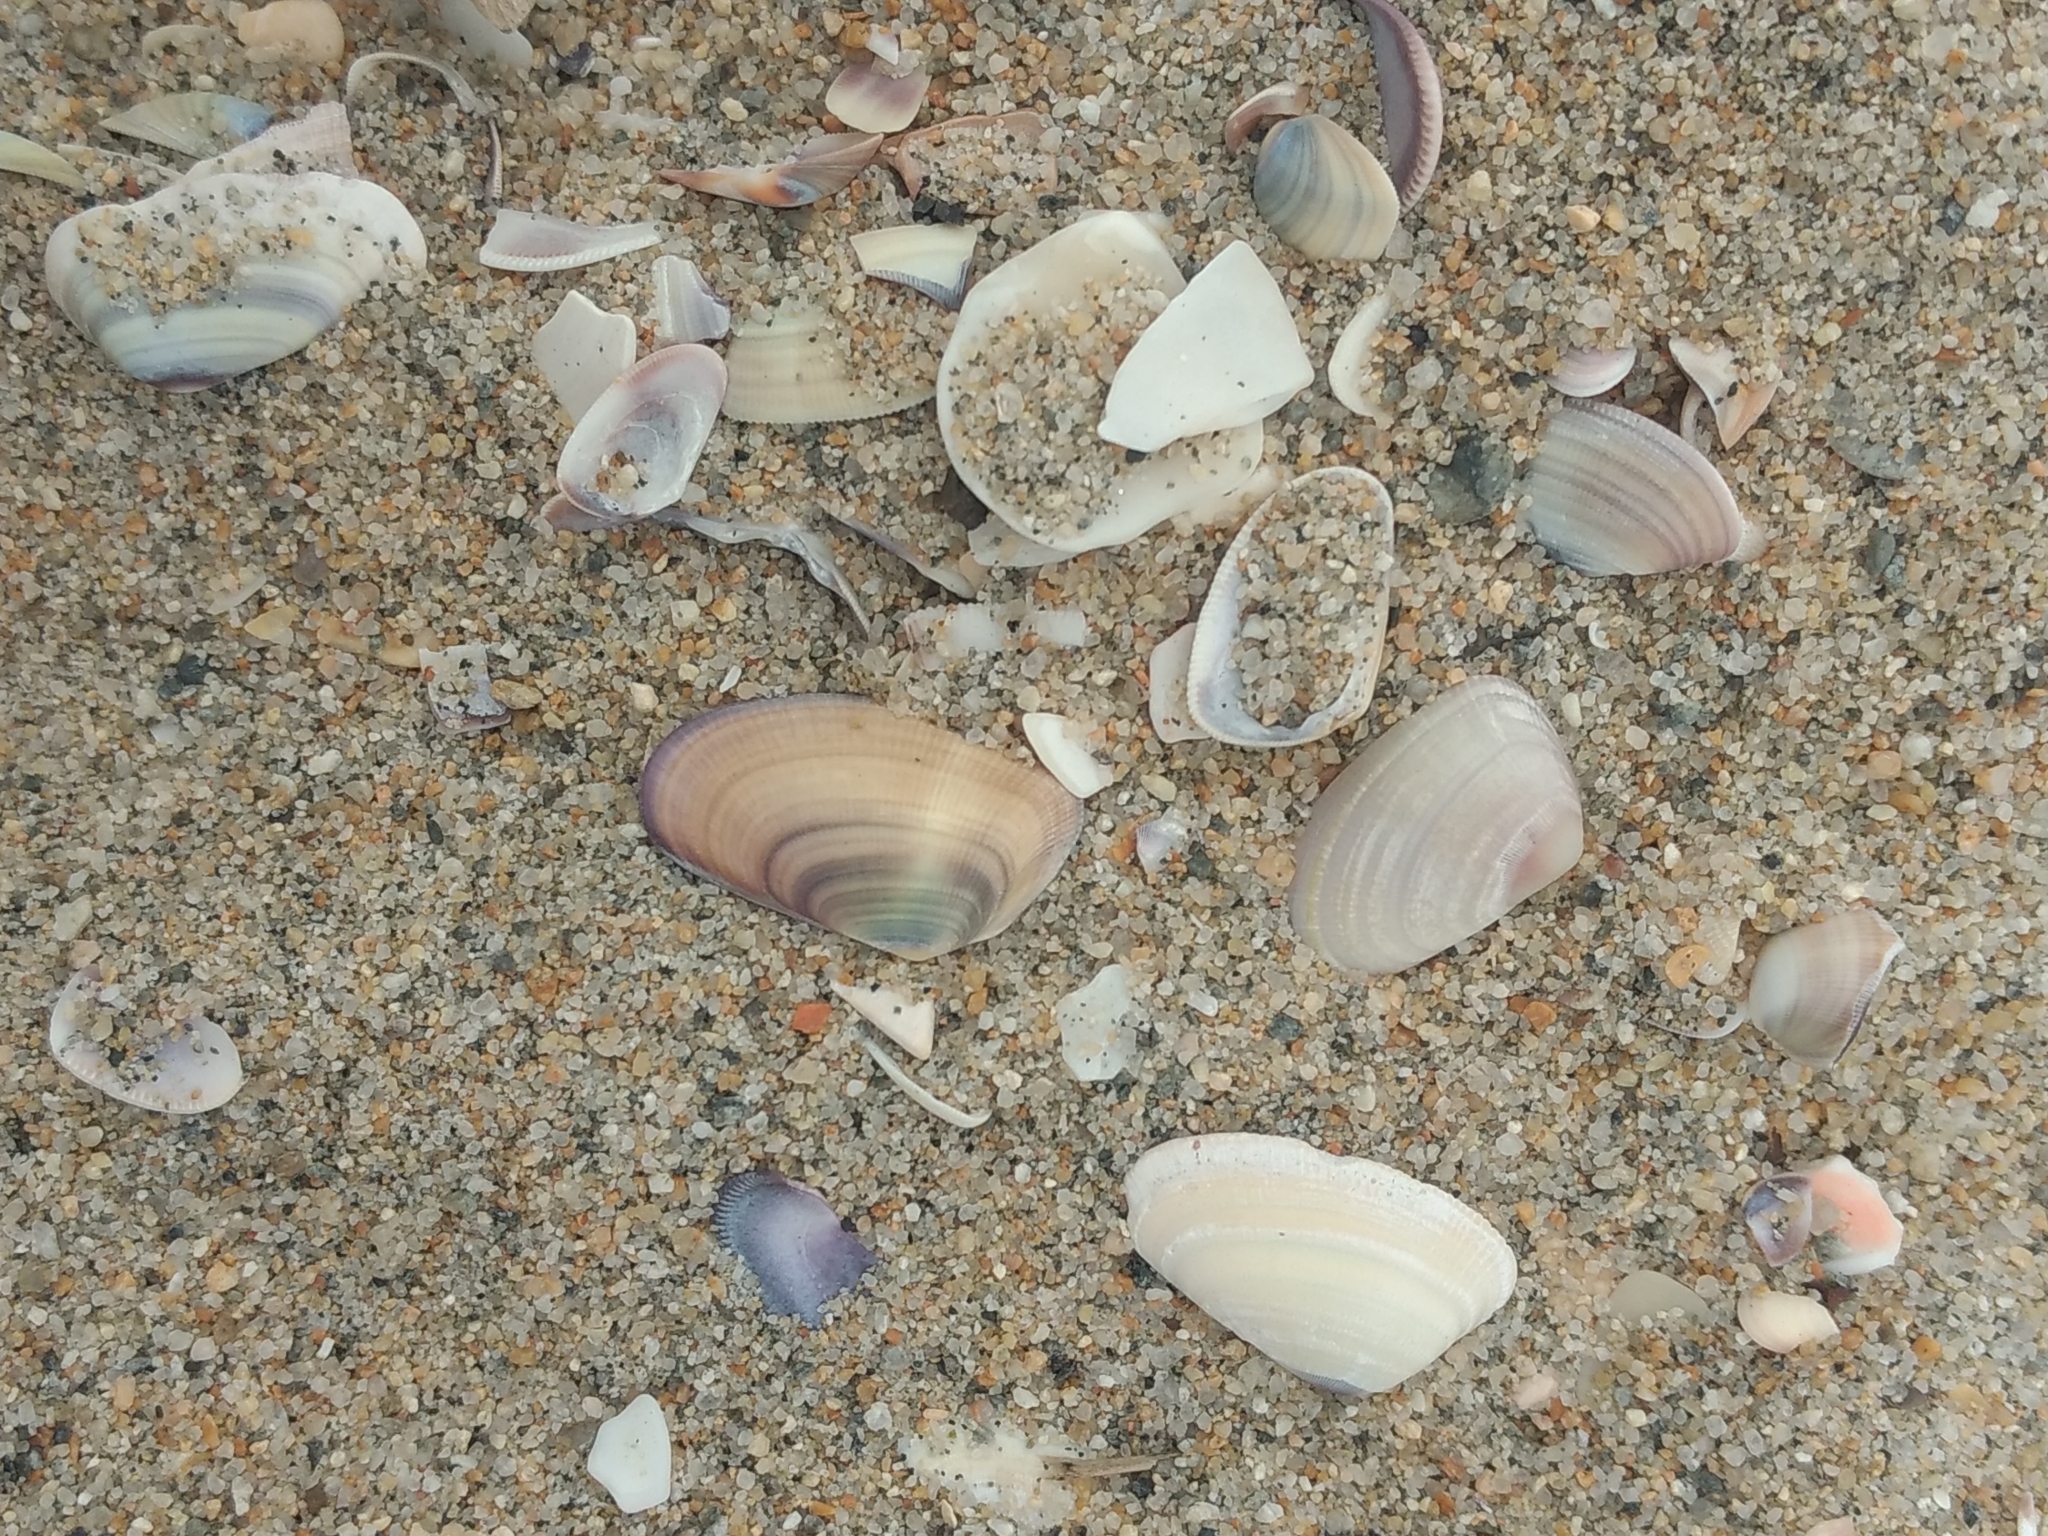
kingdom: Animalia
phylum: Mollusca
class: Bivalvia
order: Cardiida
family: Donacidae
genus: Donax
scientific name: Donax gouldii
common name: Gould beanclam
